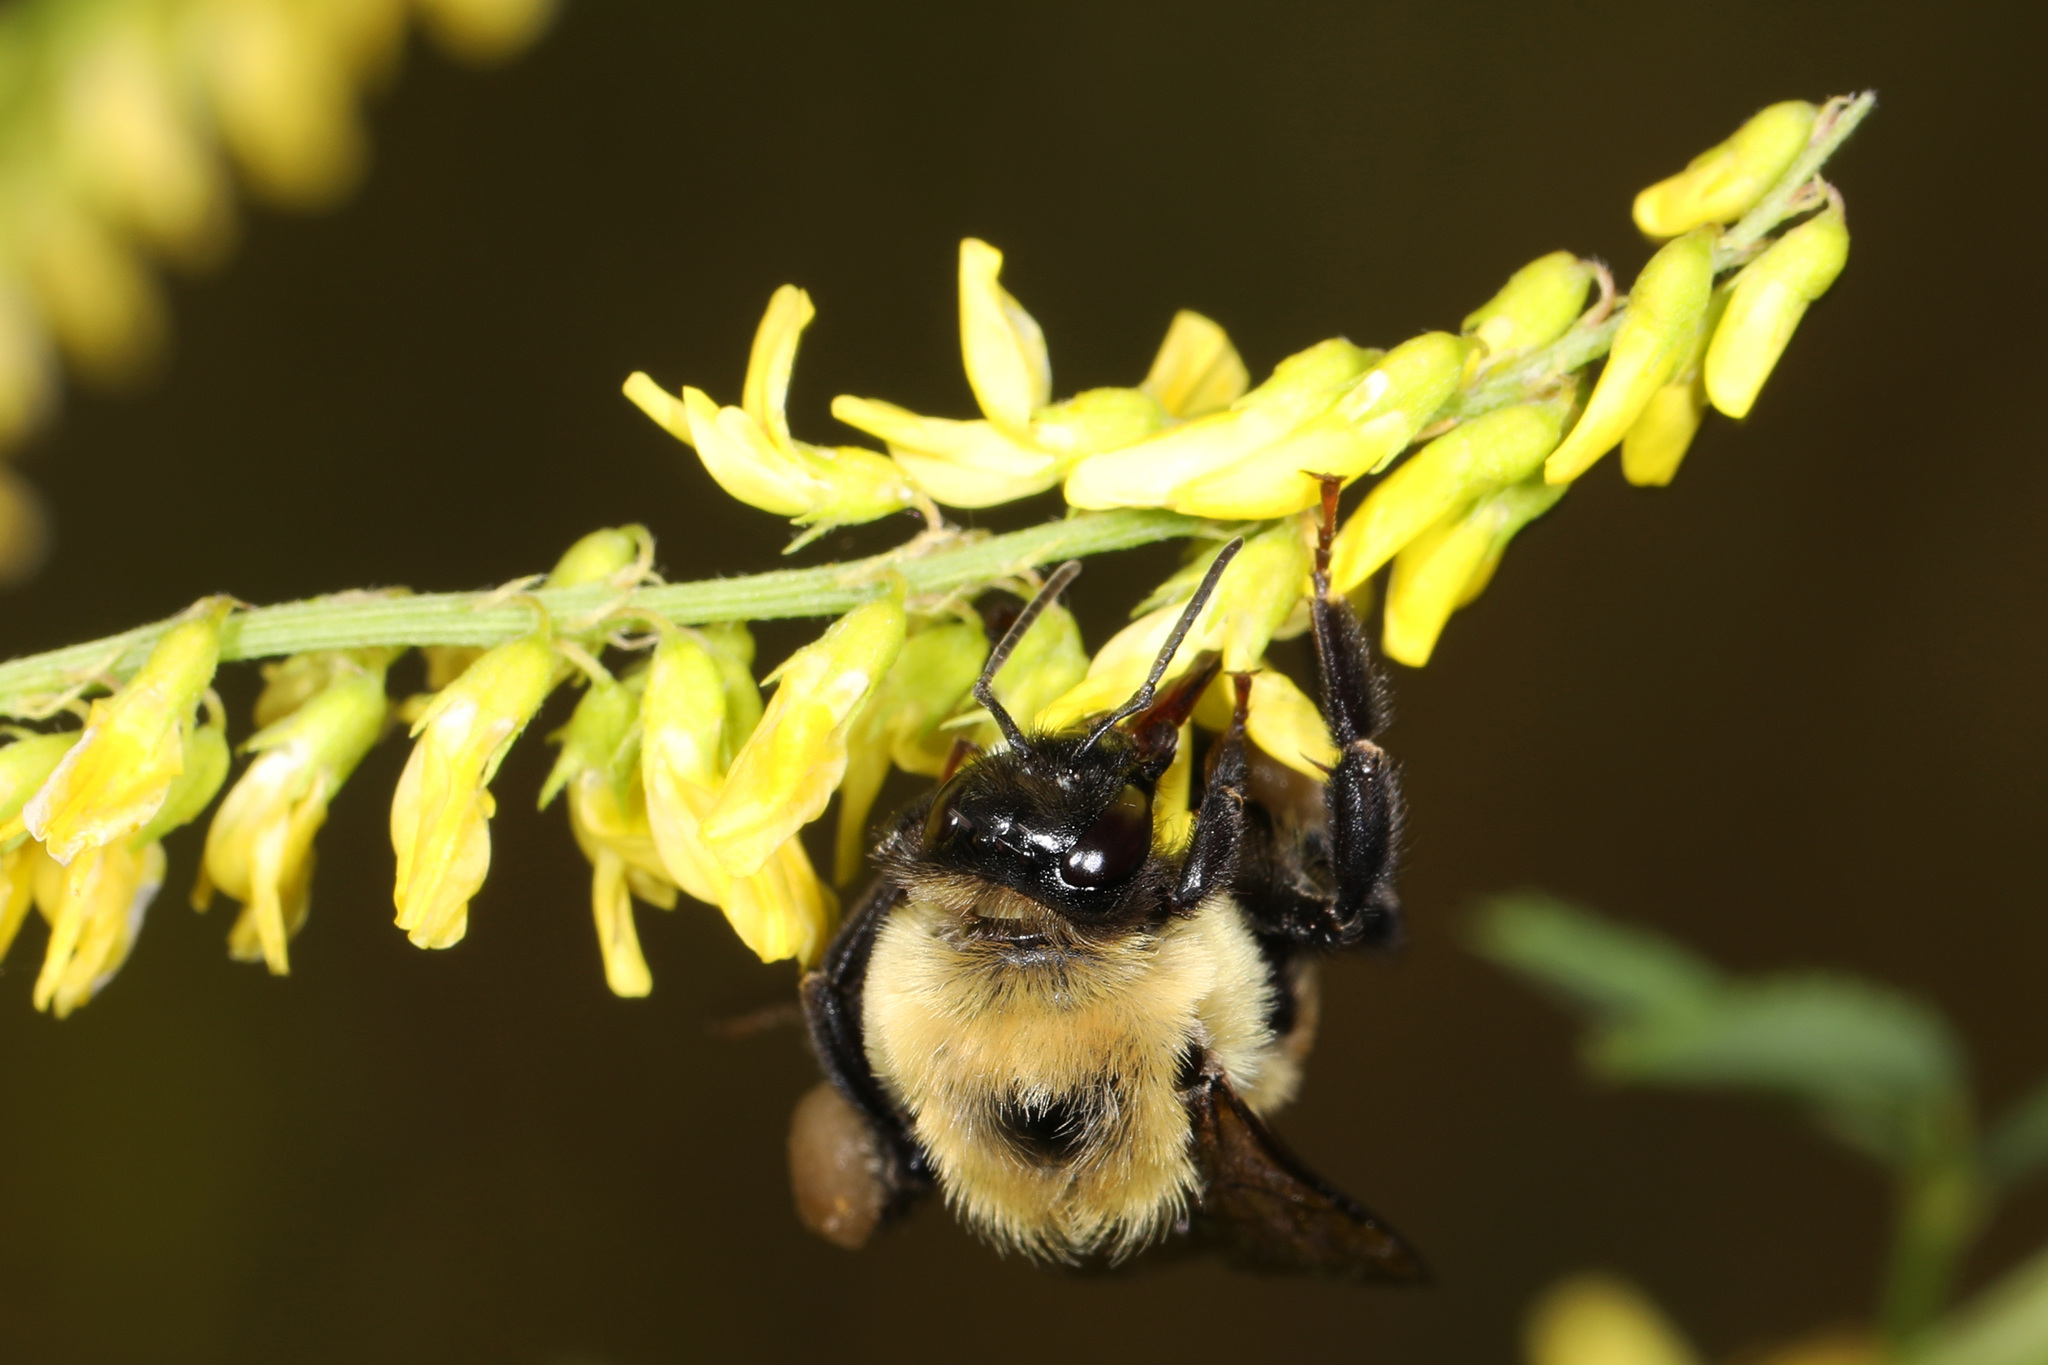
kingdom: Animalia
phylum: Arthropoda
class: Insecta
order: Hymenoptera
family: Apidae
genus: Bombus
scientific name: Bombus griseocollis
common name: Brown-belted bumble bee
